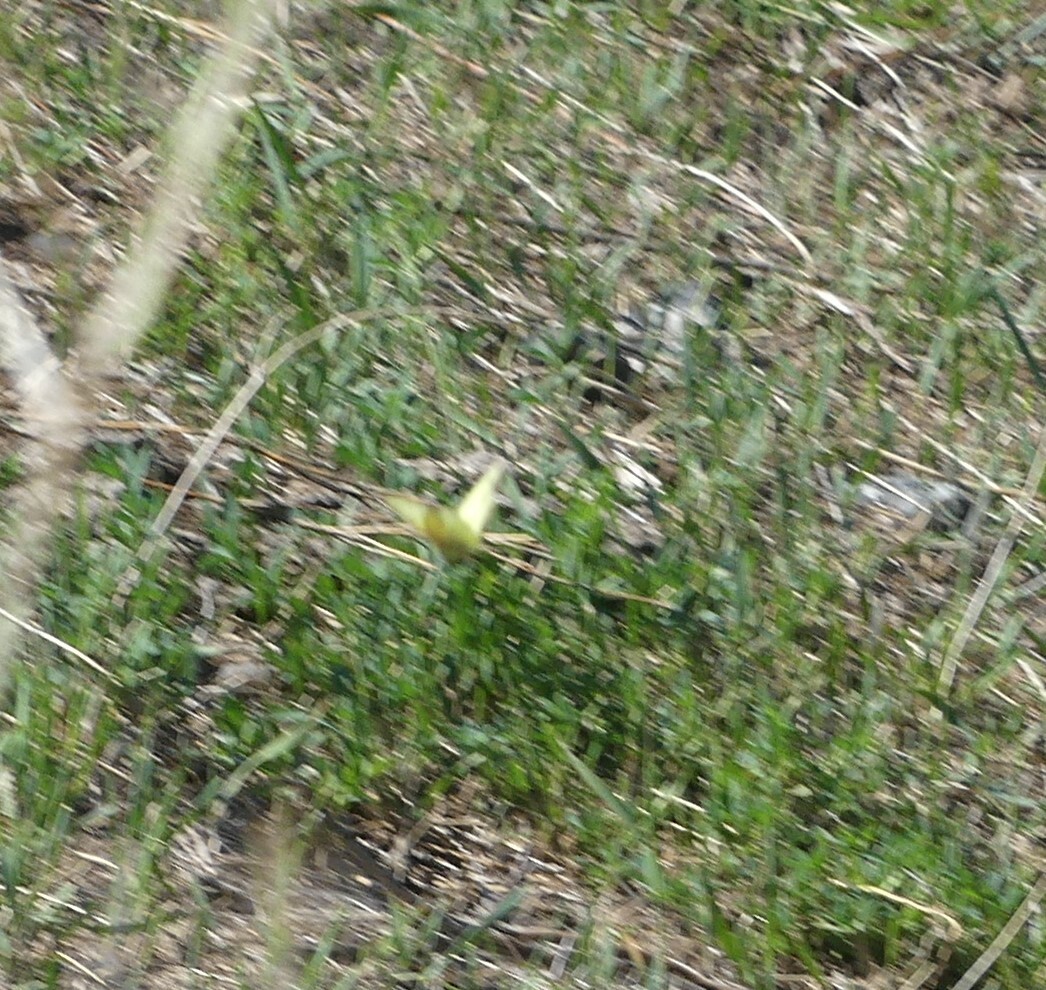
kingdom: Animalia
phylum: Arthropoda
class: Insecta
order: Lepidoptera
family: Pieridae
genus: Colias
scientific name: Colias philodice
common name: Clouded sulphur
